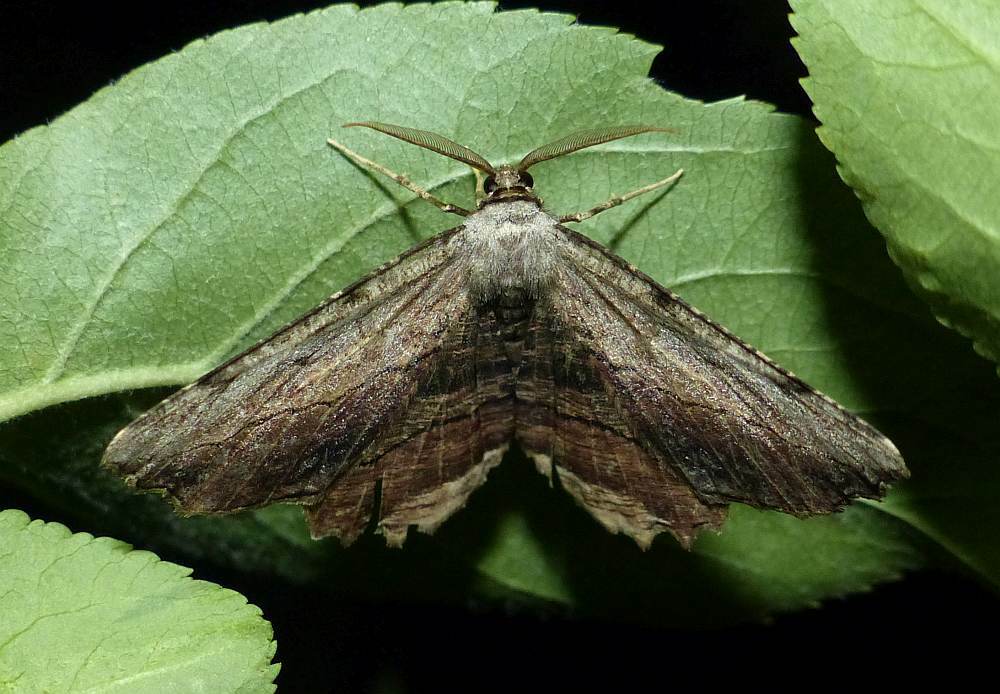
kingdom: Animalia
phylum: Arthropoda
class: Insecta
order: Lepidoptera
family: Geometridae
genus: Lytrosis
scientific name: Lytrosis unitaria
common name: Common lytrosis
